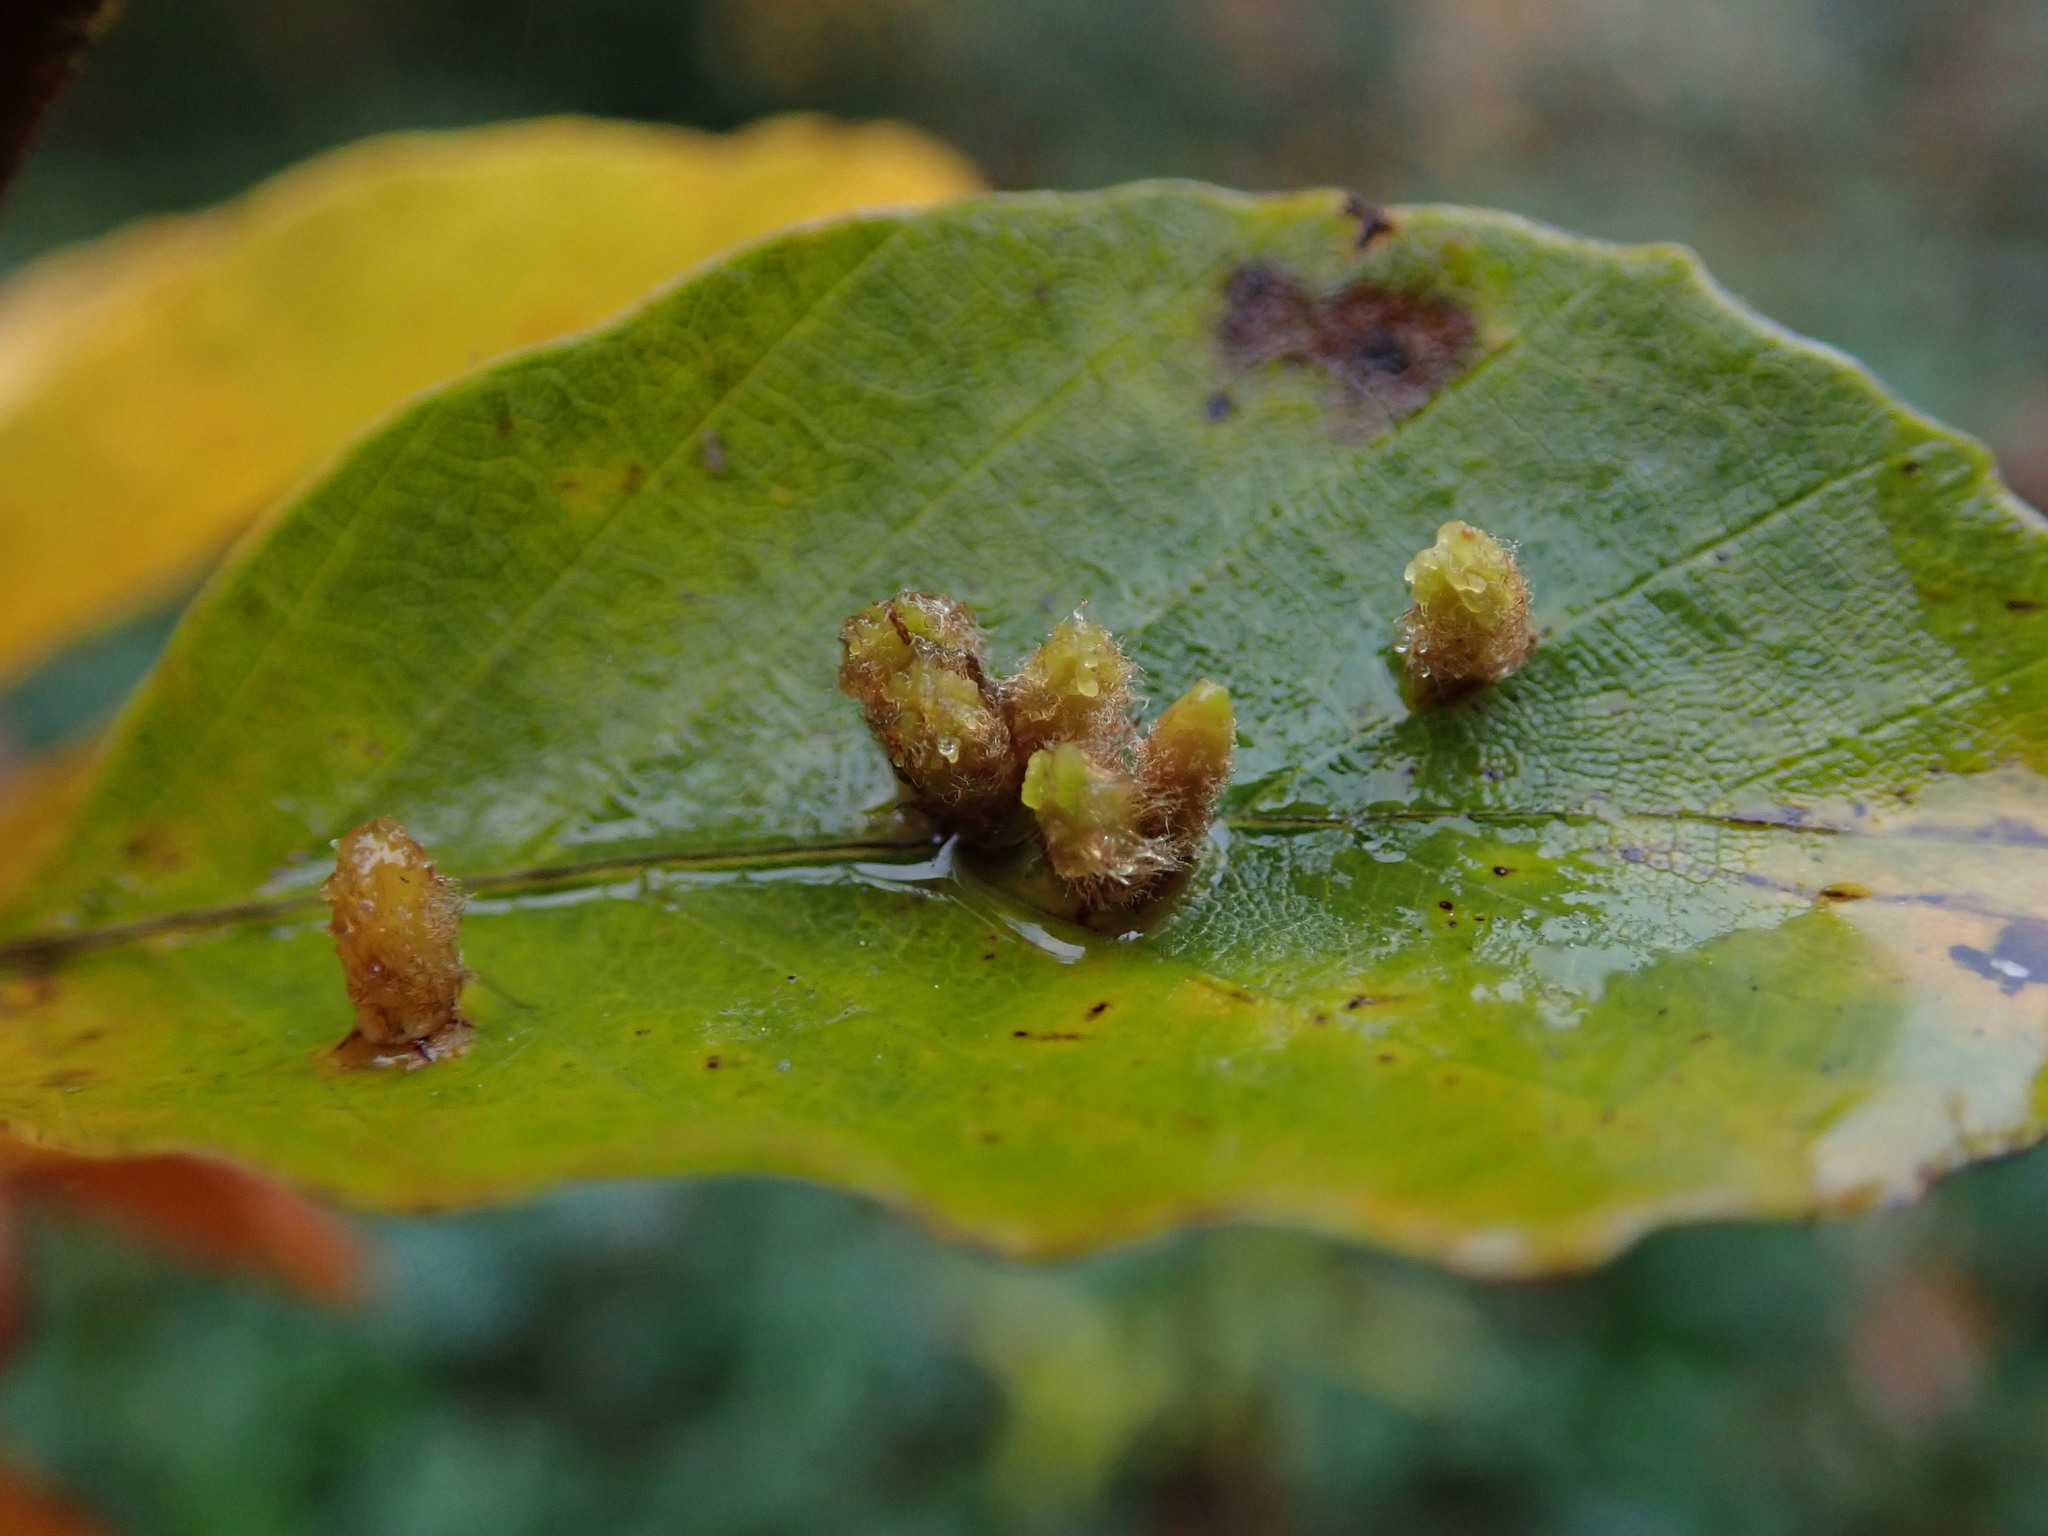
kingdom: Animalia
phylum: Arthropoda
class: Insecta
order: Diptera
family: Cecidomyiidae
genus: Hartigiola
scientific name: Hartigiola annulipes
